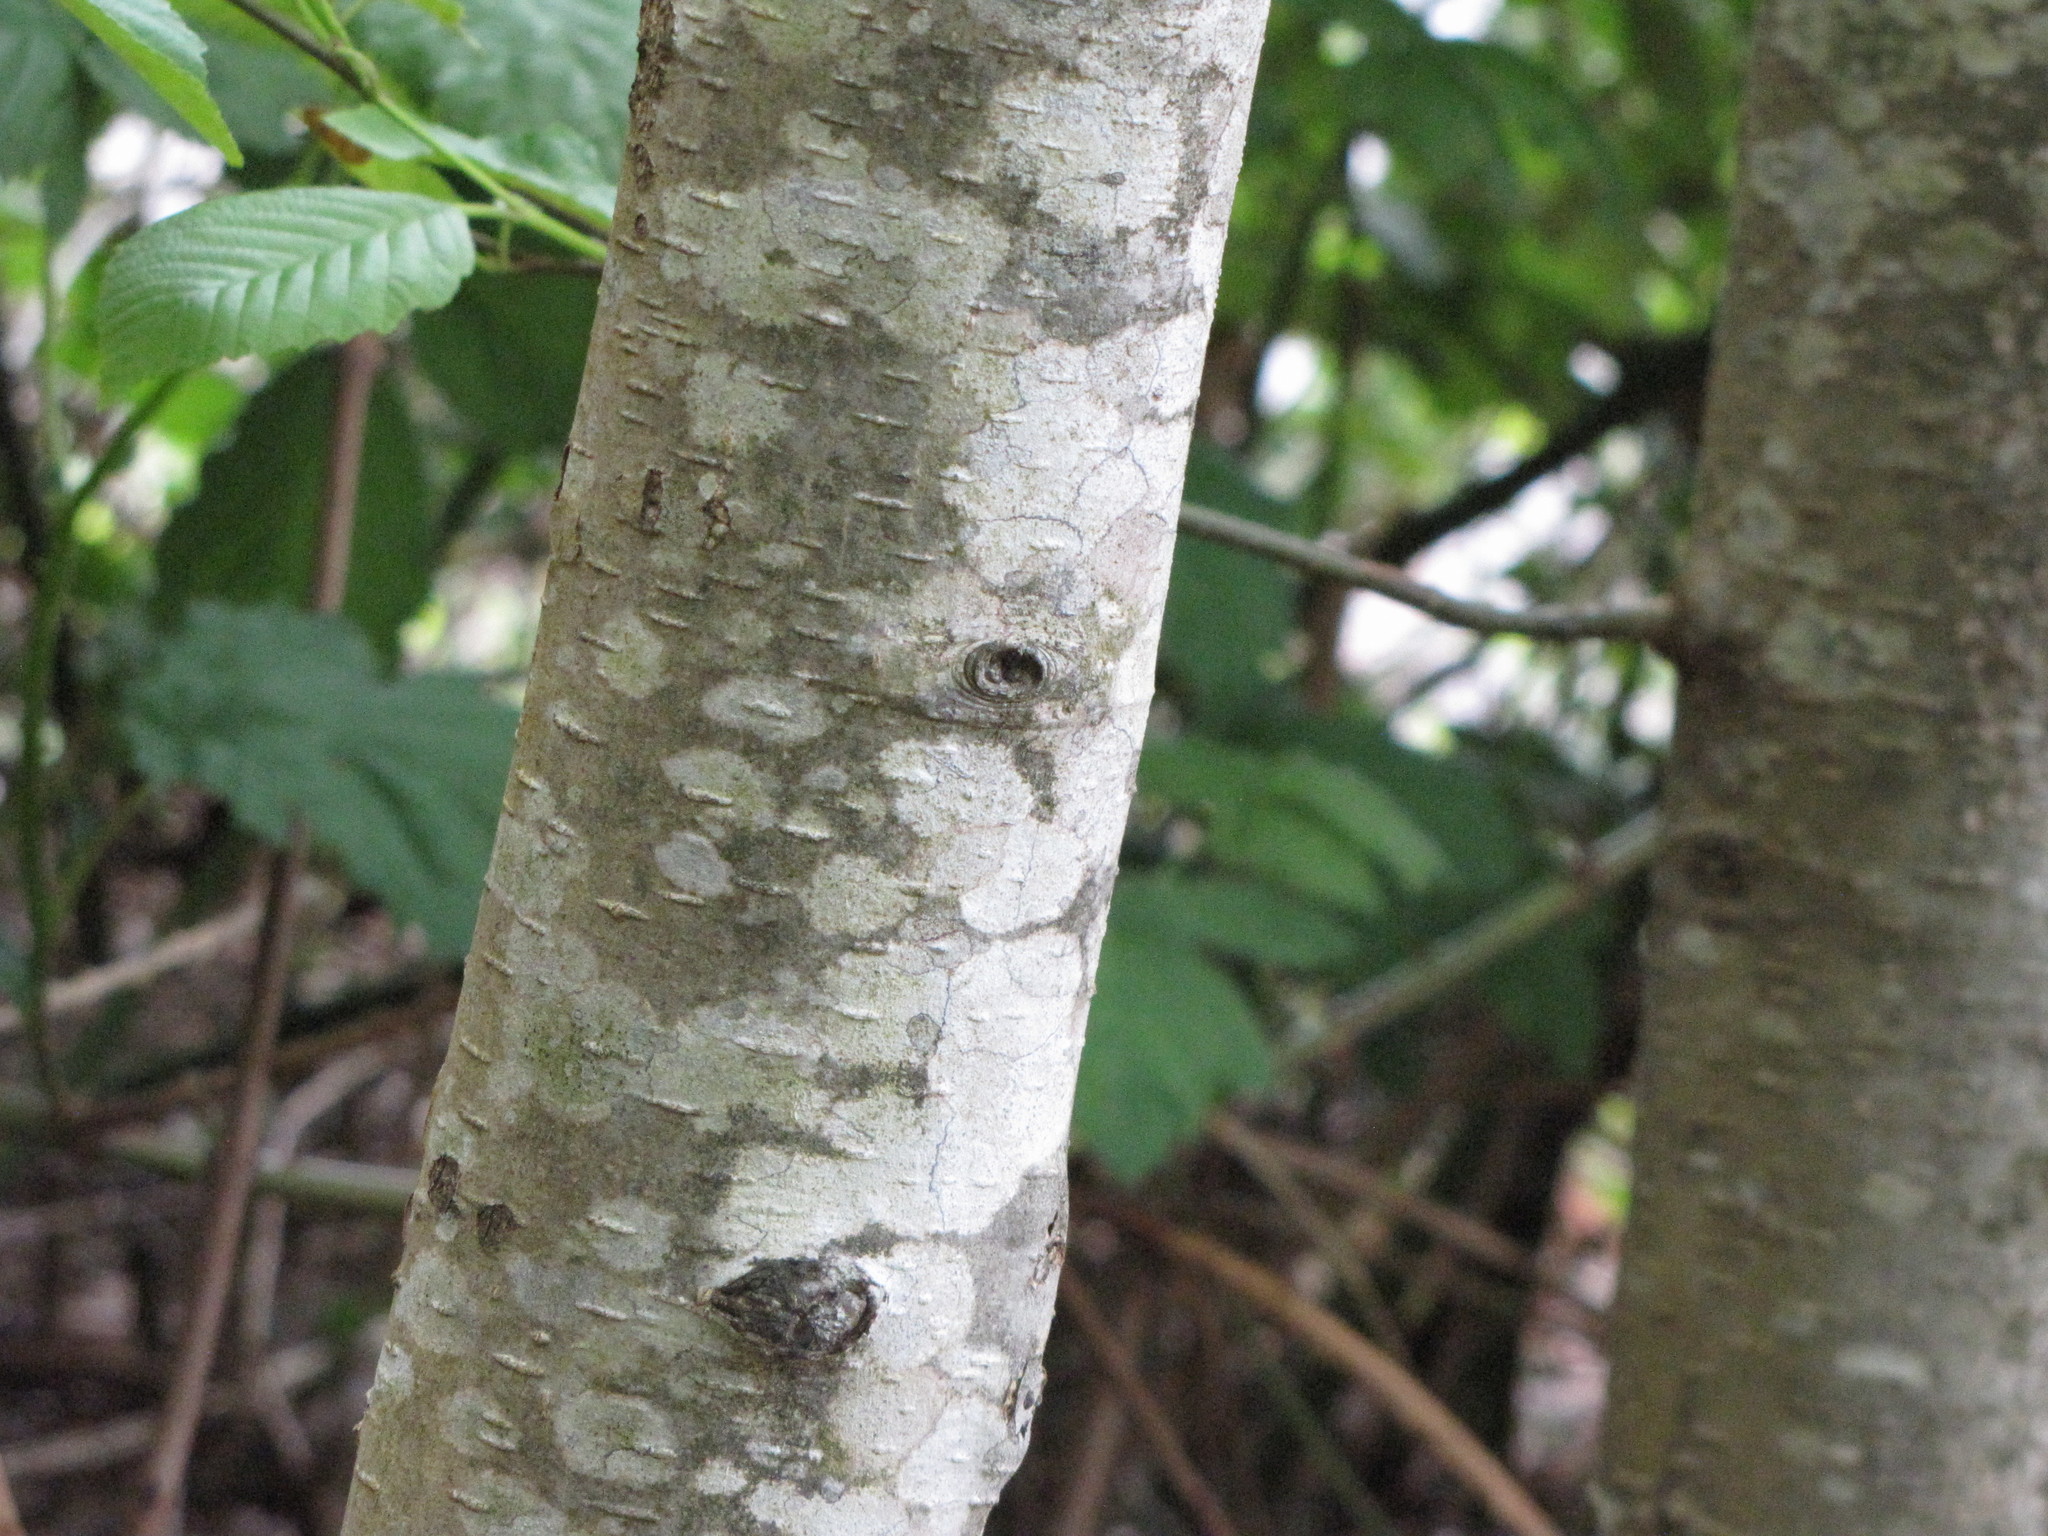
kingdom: Plantae
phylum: Tracheophyta
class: Magnoliopsida
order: Fagales
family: Betulaceae
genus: Alnus
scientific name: Alnus rubra
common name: Red alder
